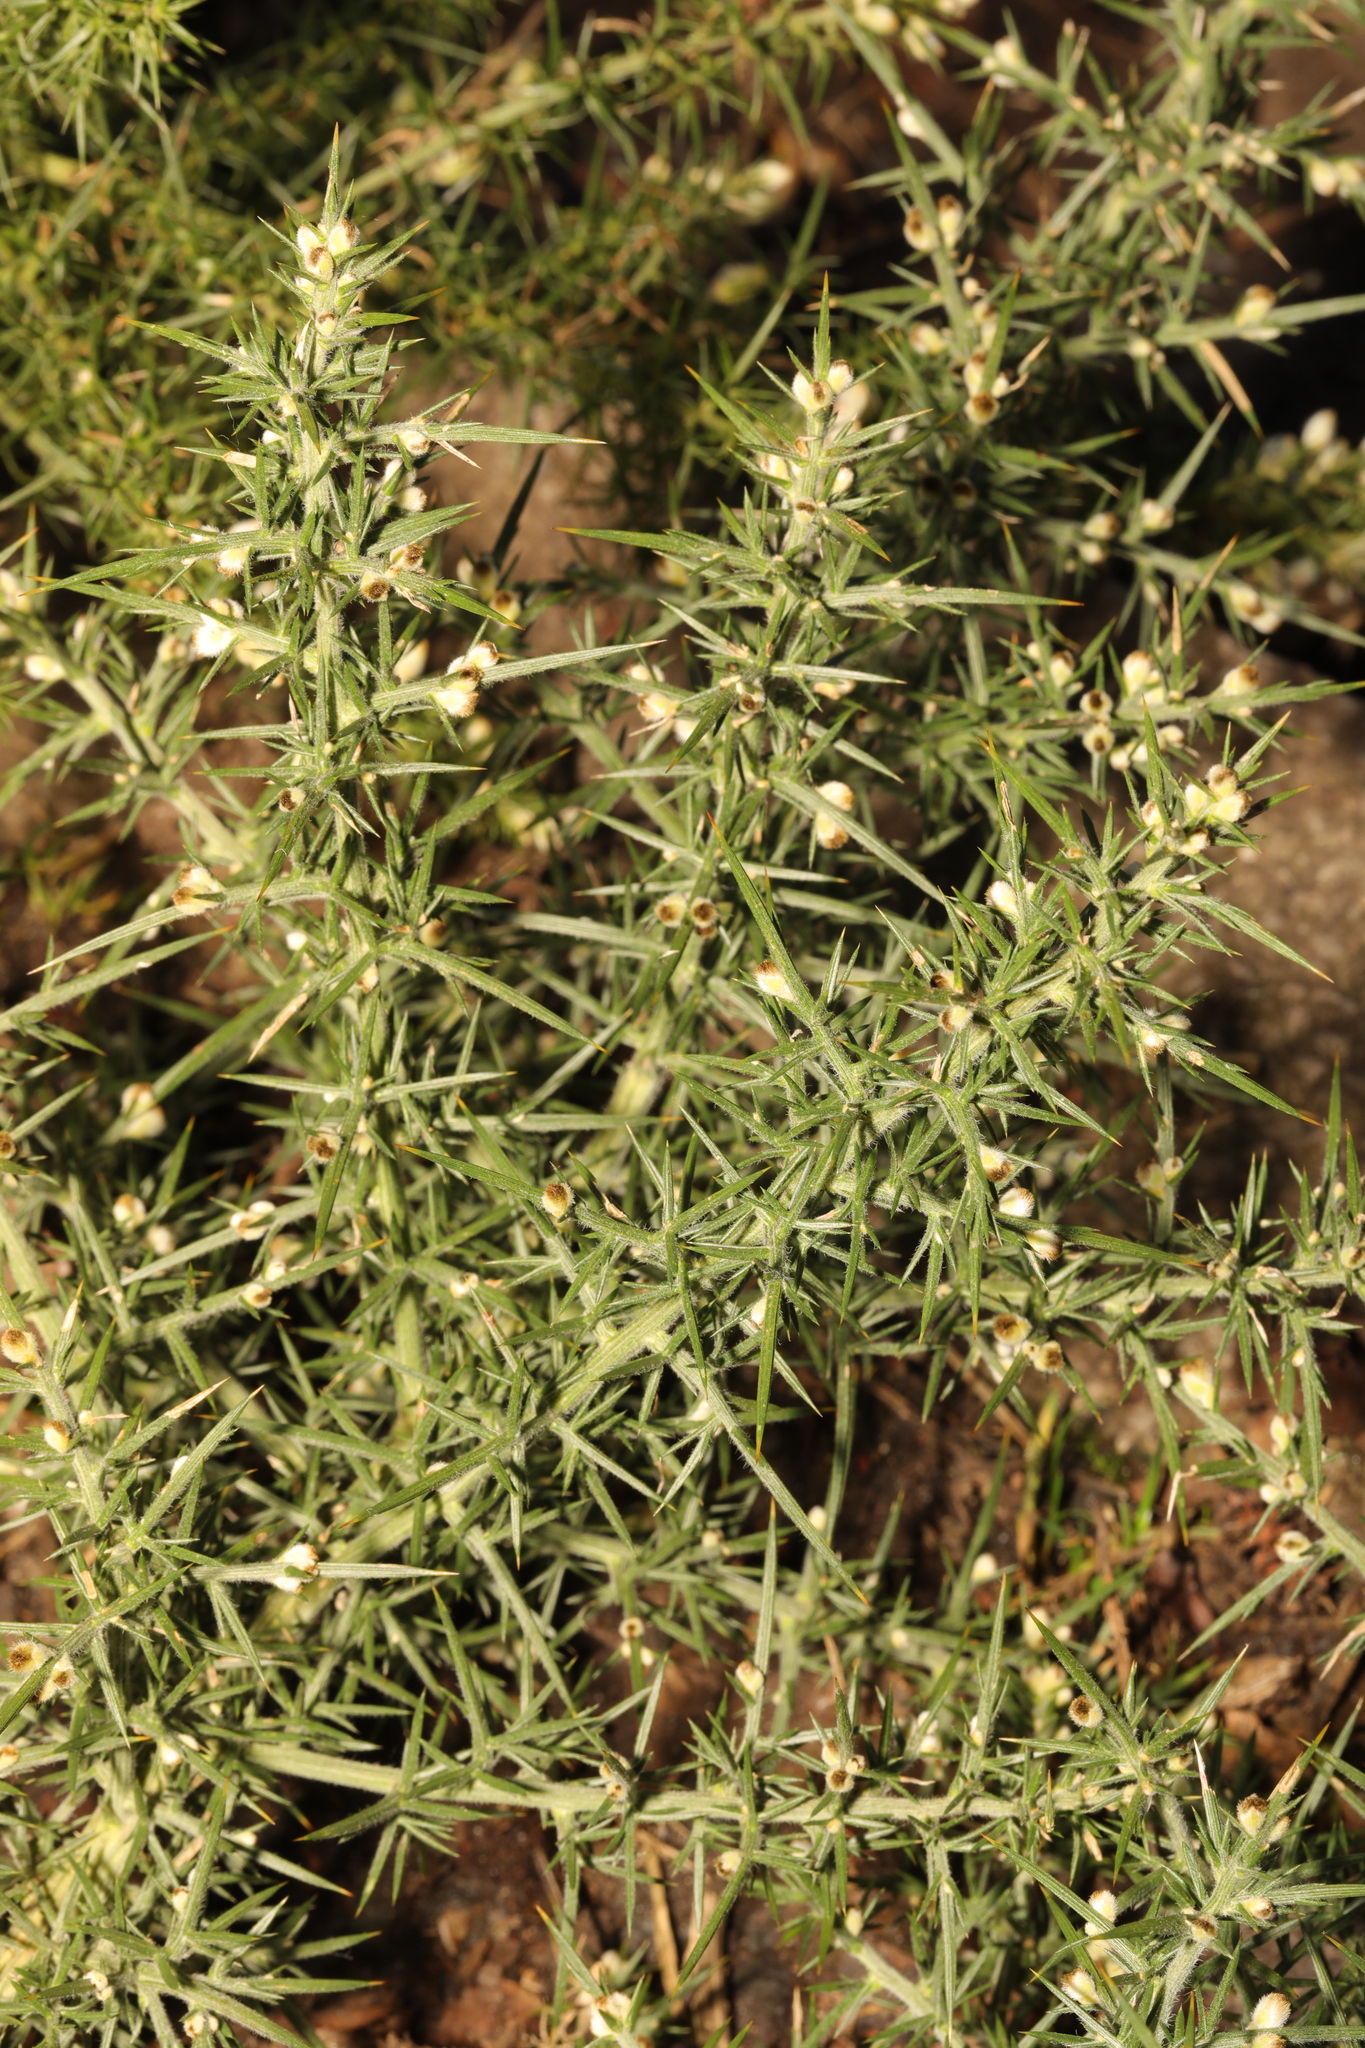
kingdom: Plantae
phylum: Tracheophyta
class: Magnoliopsida
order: Fabales
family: Fabaceae
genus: Ulex
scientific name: Ulex europaeus
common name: Common gorse
